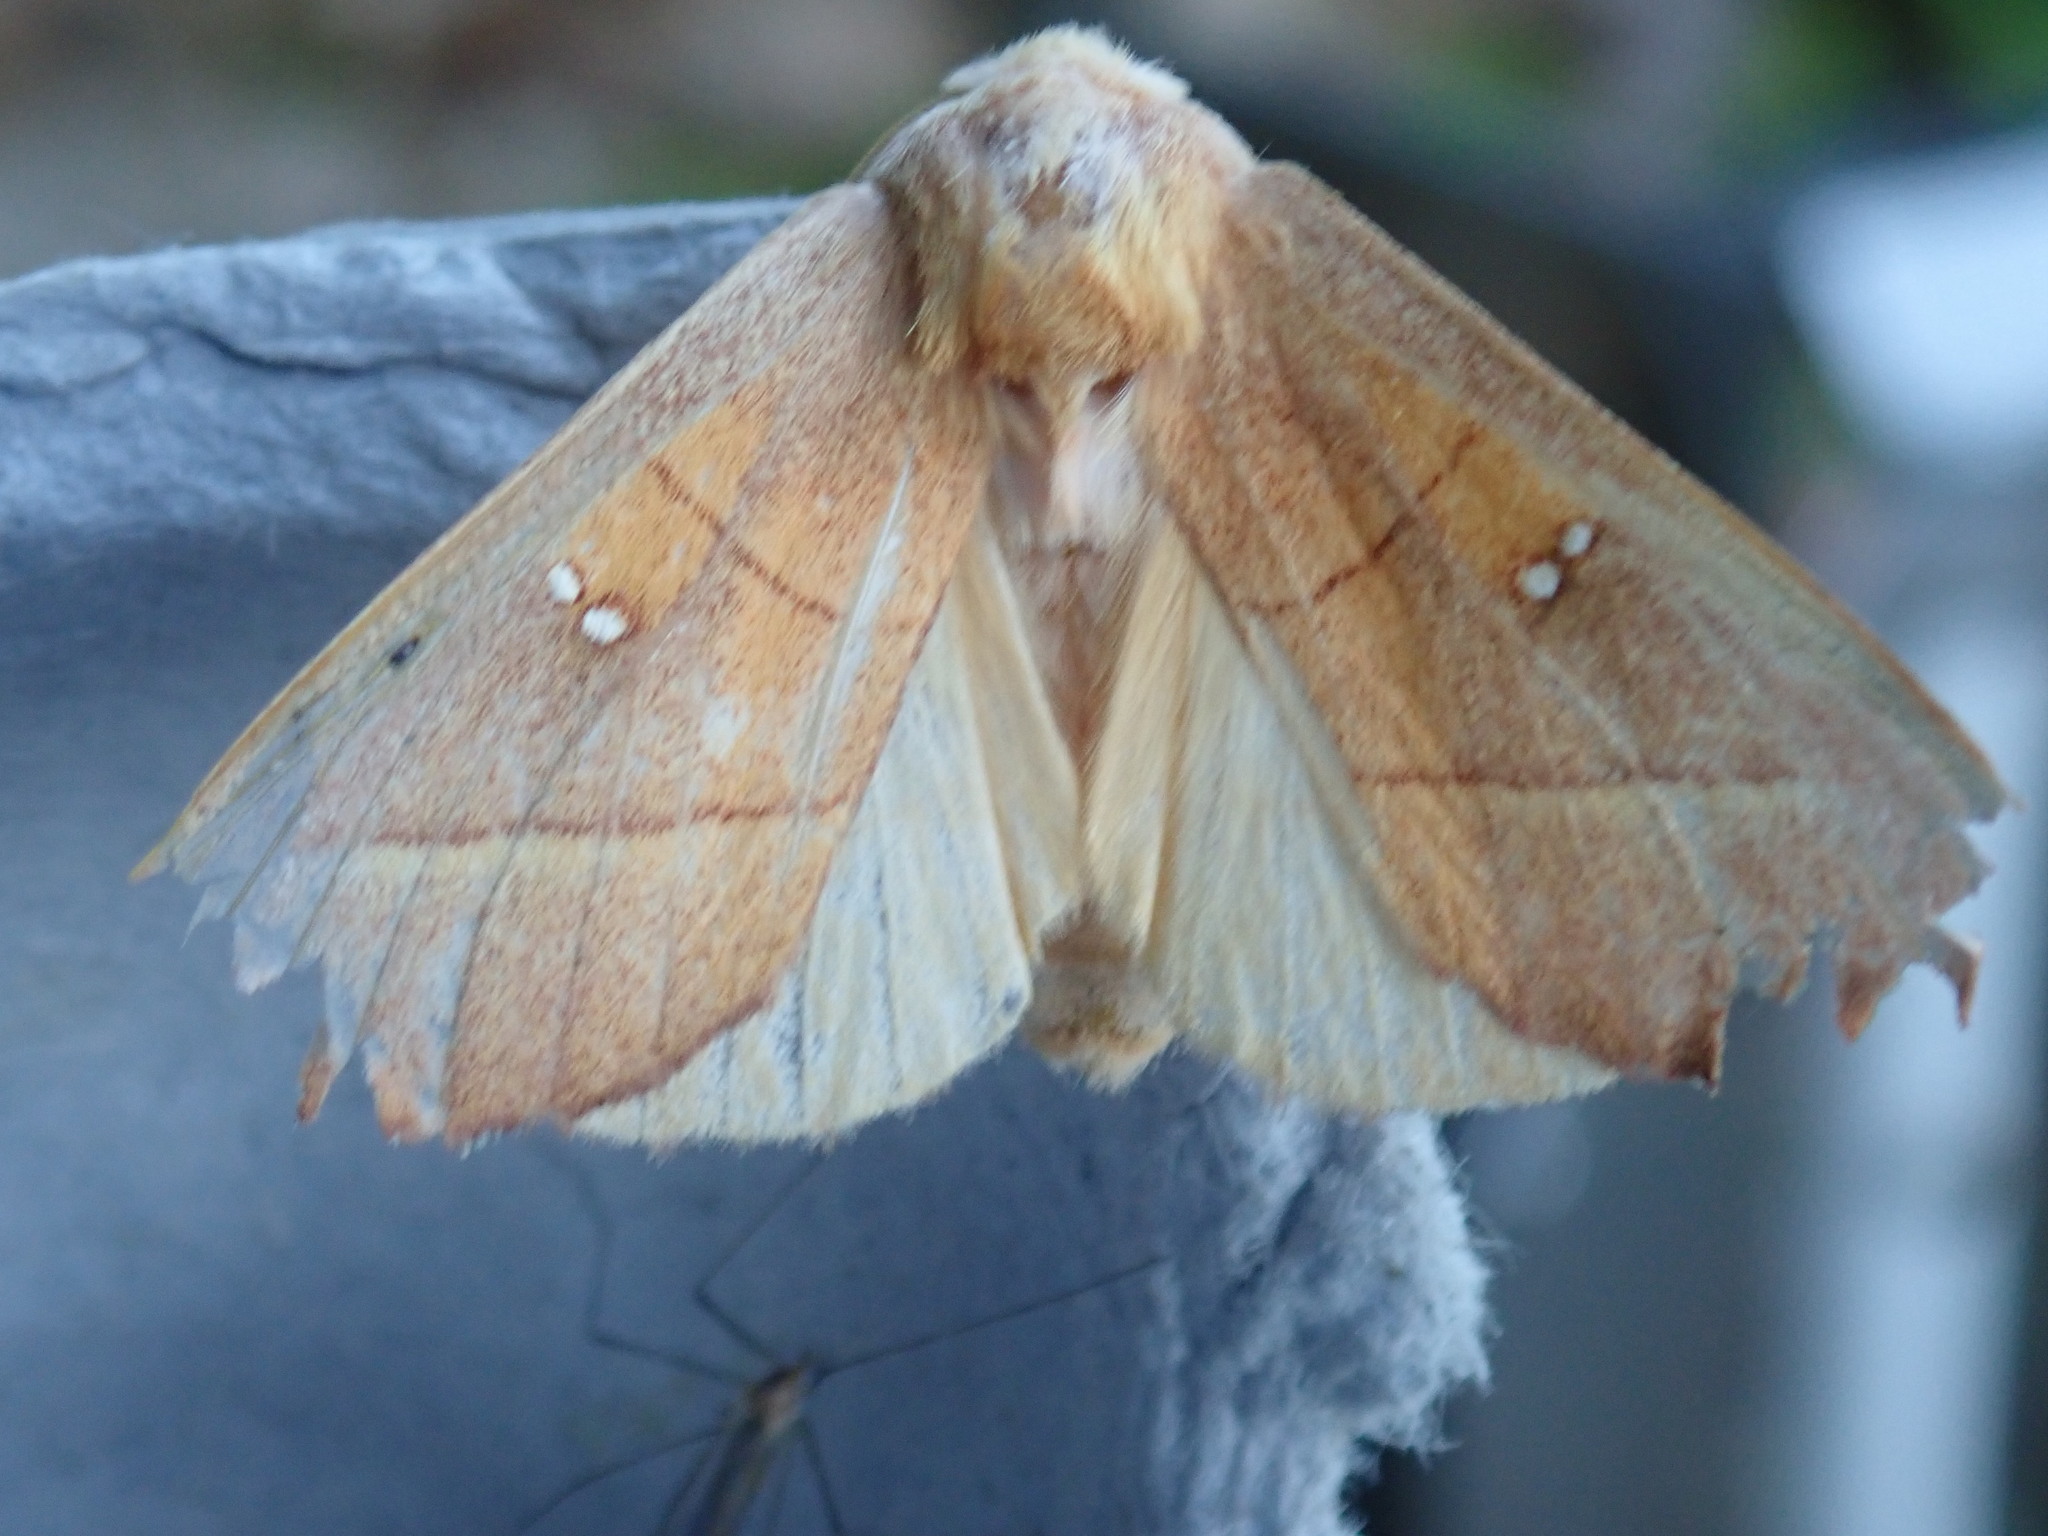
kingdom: Animalia
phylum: Arthropoda
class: Insecta
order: Lepidoptera
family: Notodontidae
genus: Nadata
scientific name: Nadata gibbosa
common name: White-dotted prominent
